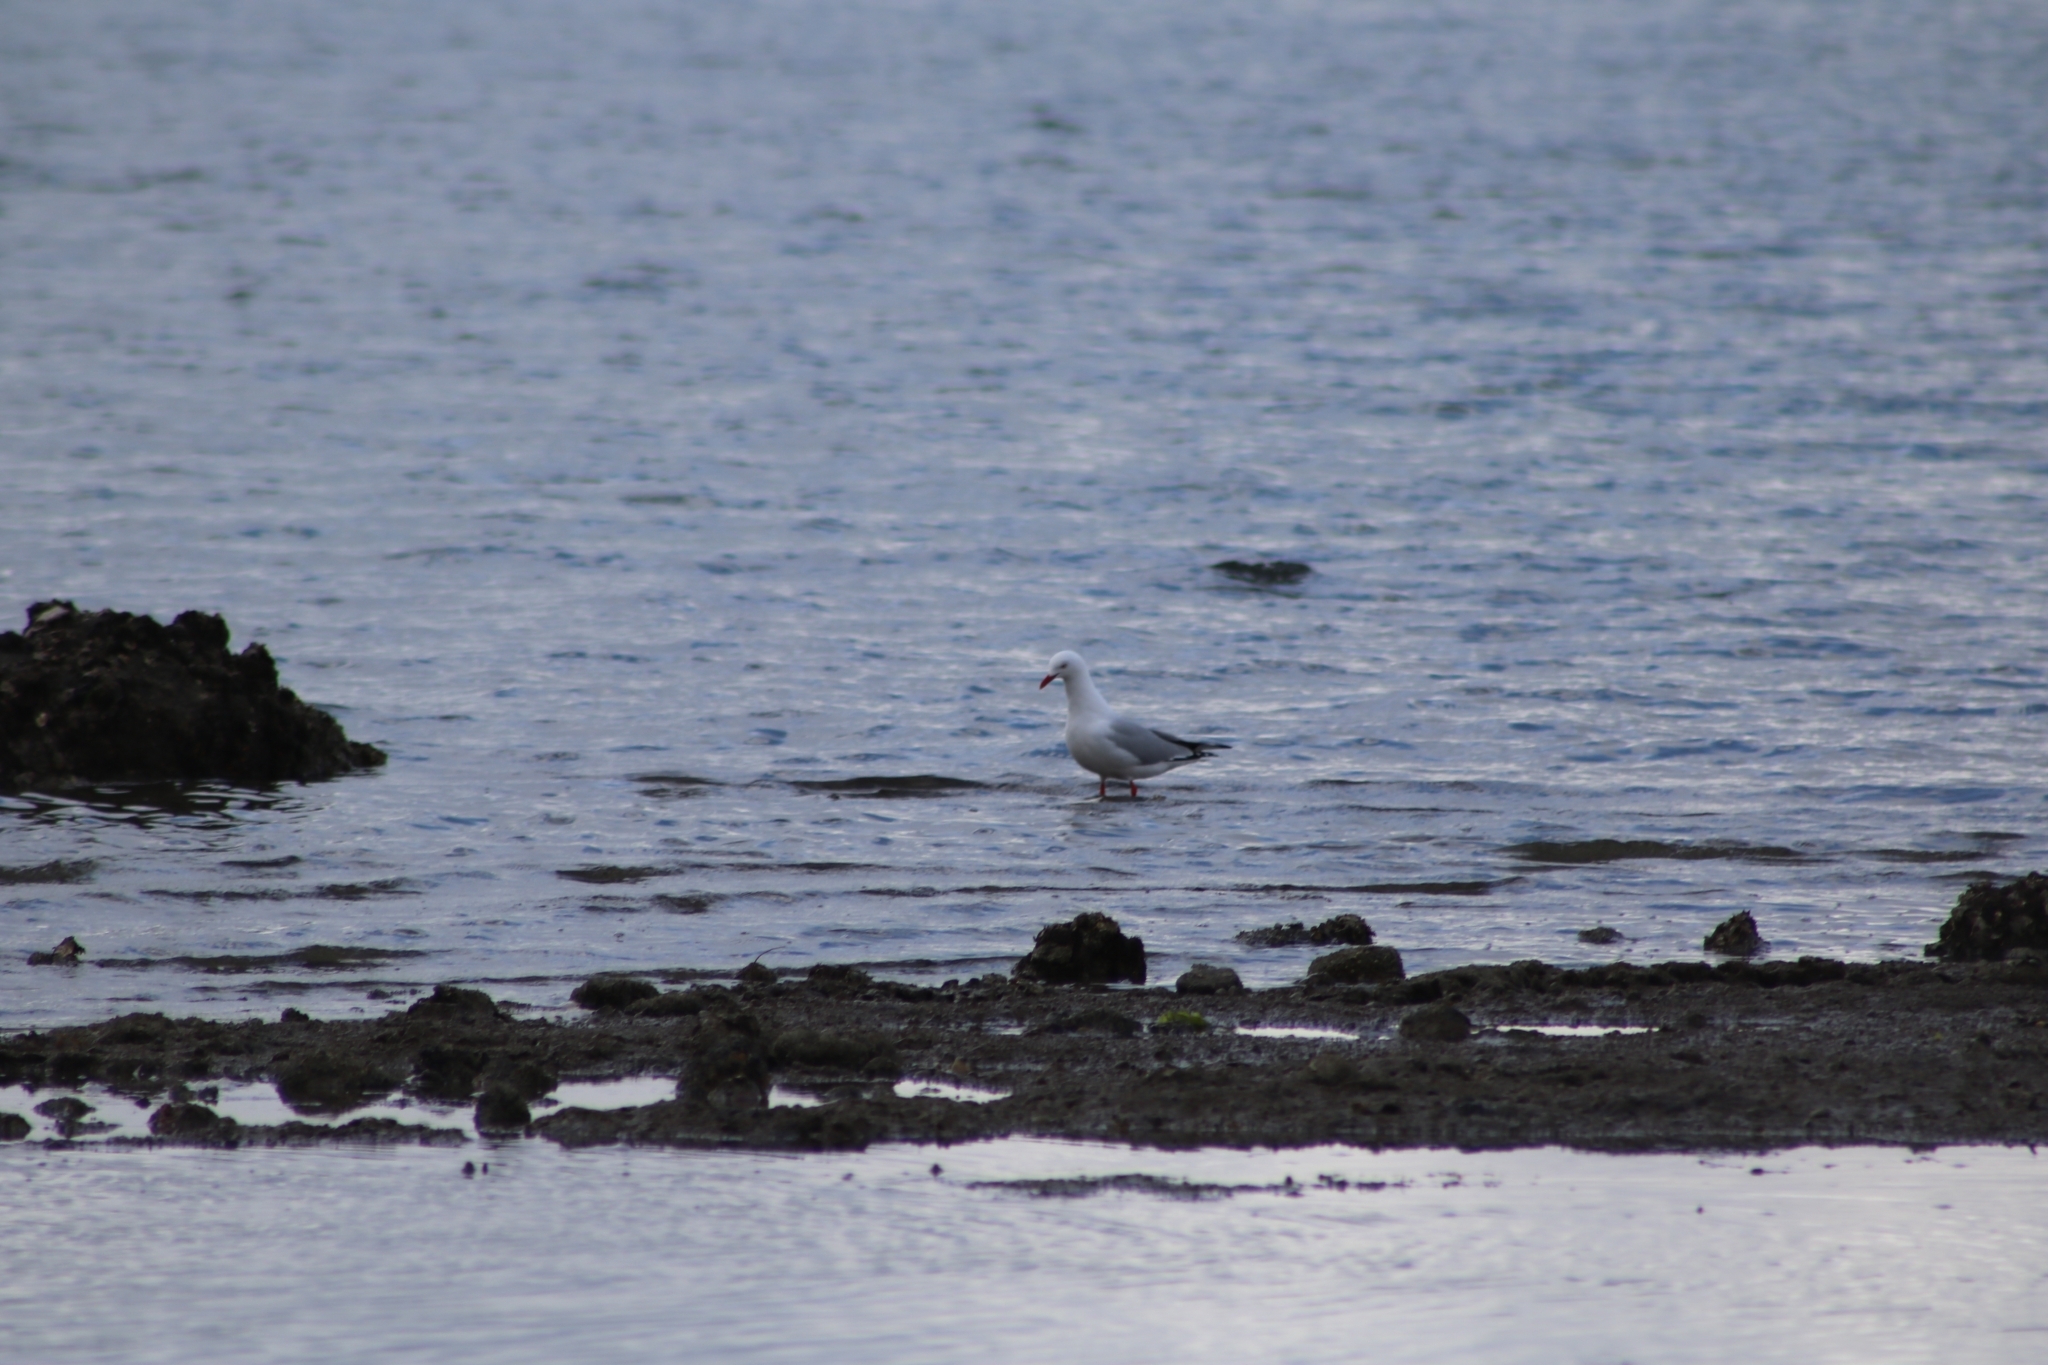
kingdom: Animalia
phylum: Chordata
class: Aves
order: Charadriiformes
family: Laridae
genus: Chroicocephalus
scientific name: Chroicocephalus novaehollandiae
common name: Silver gull
